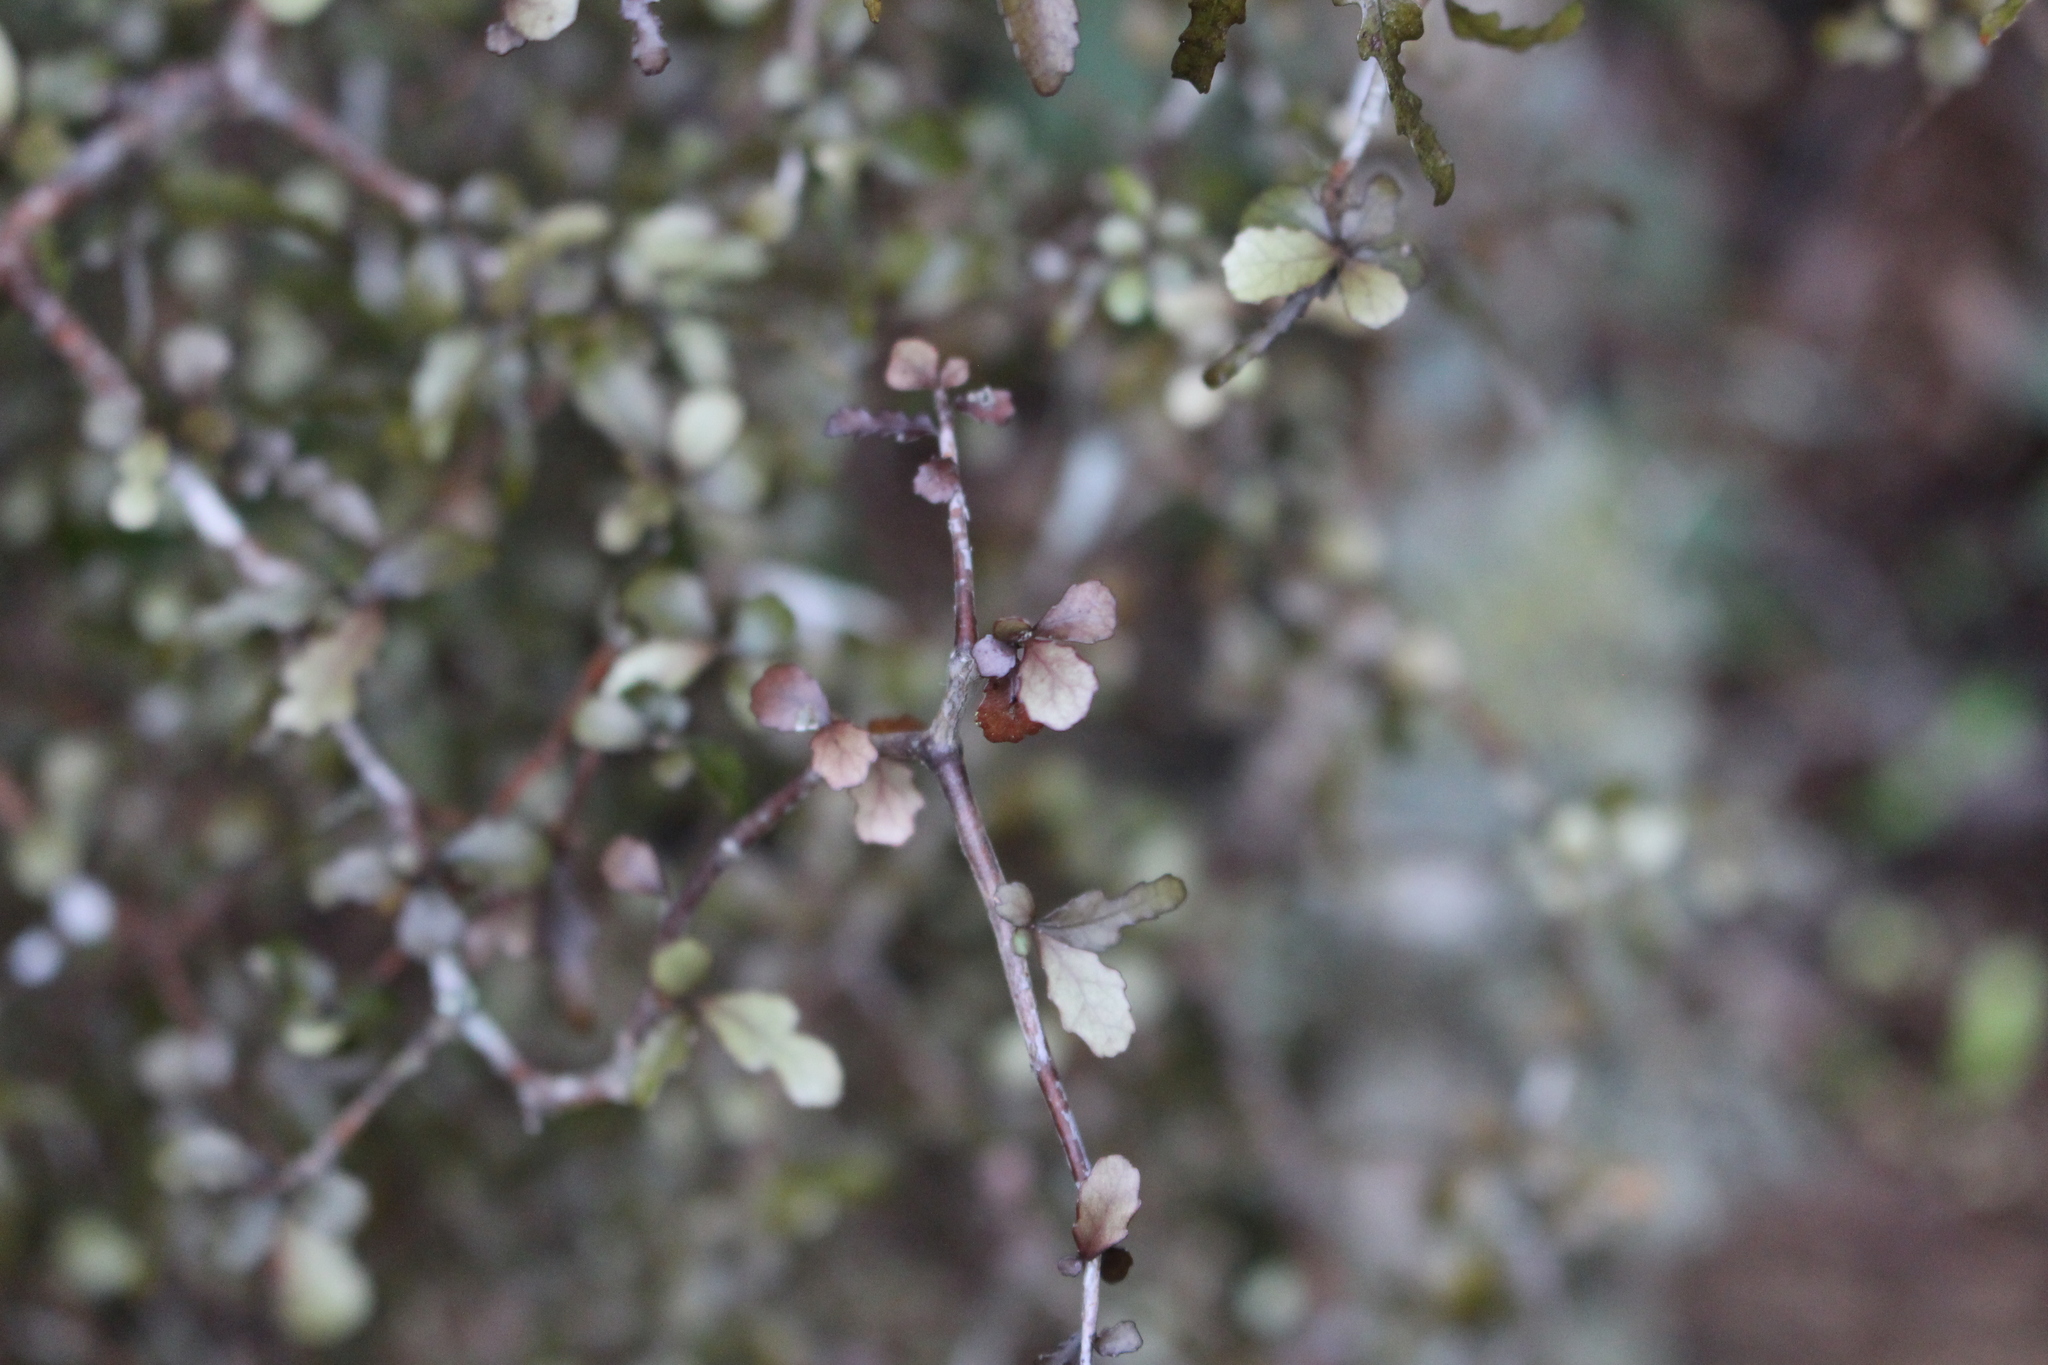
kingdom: Plantae
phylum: Tracheophyta
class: Magnoliopsida
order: Oxalidales
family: Elaeocarpaceae
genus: Elaeocarpus
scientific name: Elaeocarpus hookerianus
